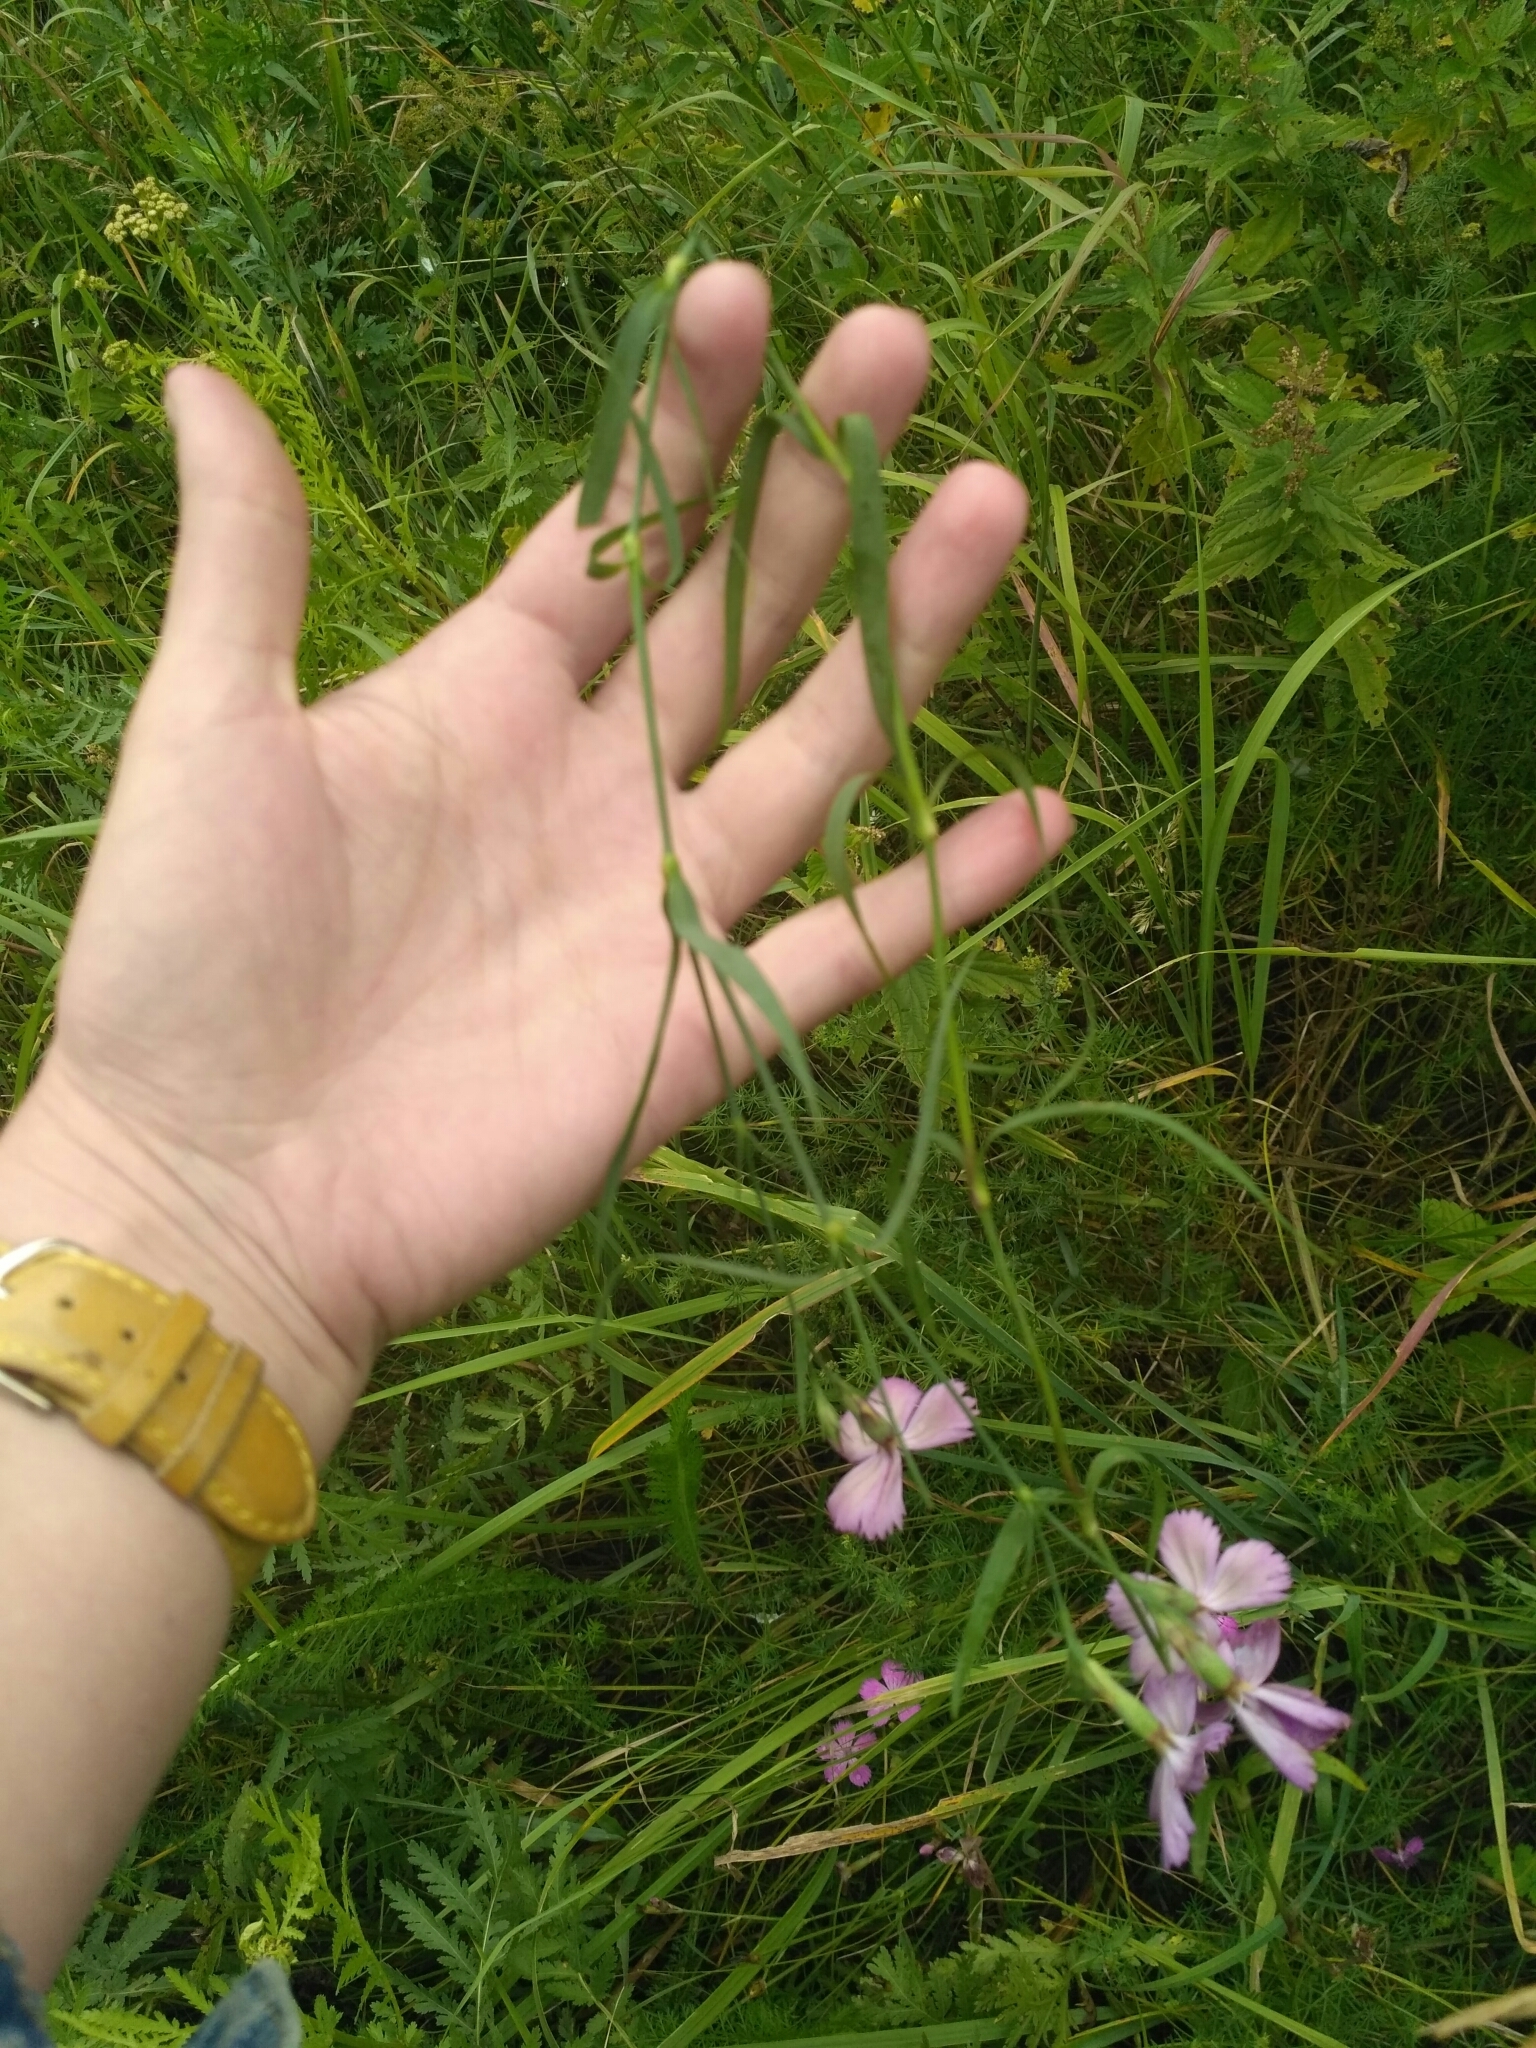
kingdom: Plantae
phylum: Tracheophyta
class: Magnoliopsida
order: Caryophyllales
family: Caryophyllaceae
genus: Dianthus
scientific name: Dianthus chinensis
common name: Rainbow pink
